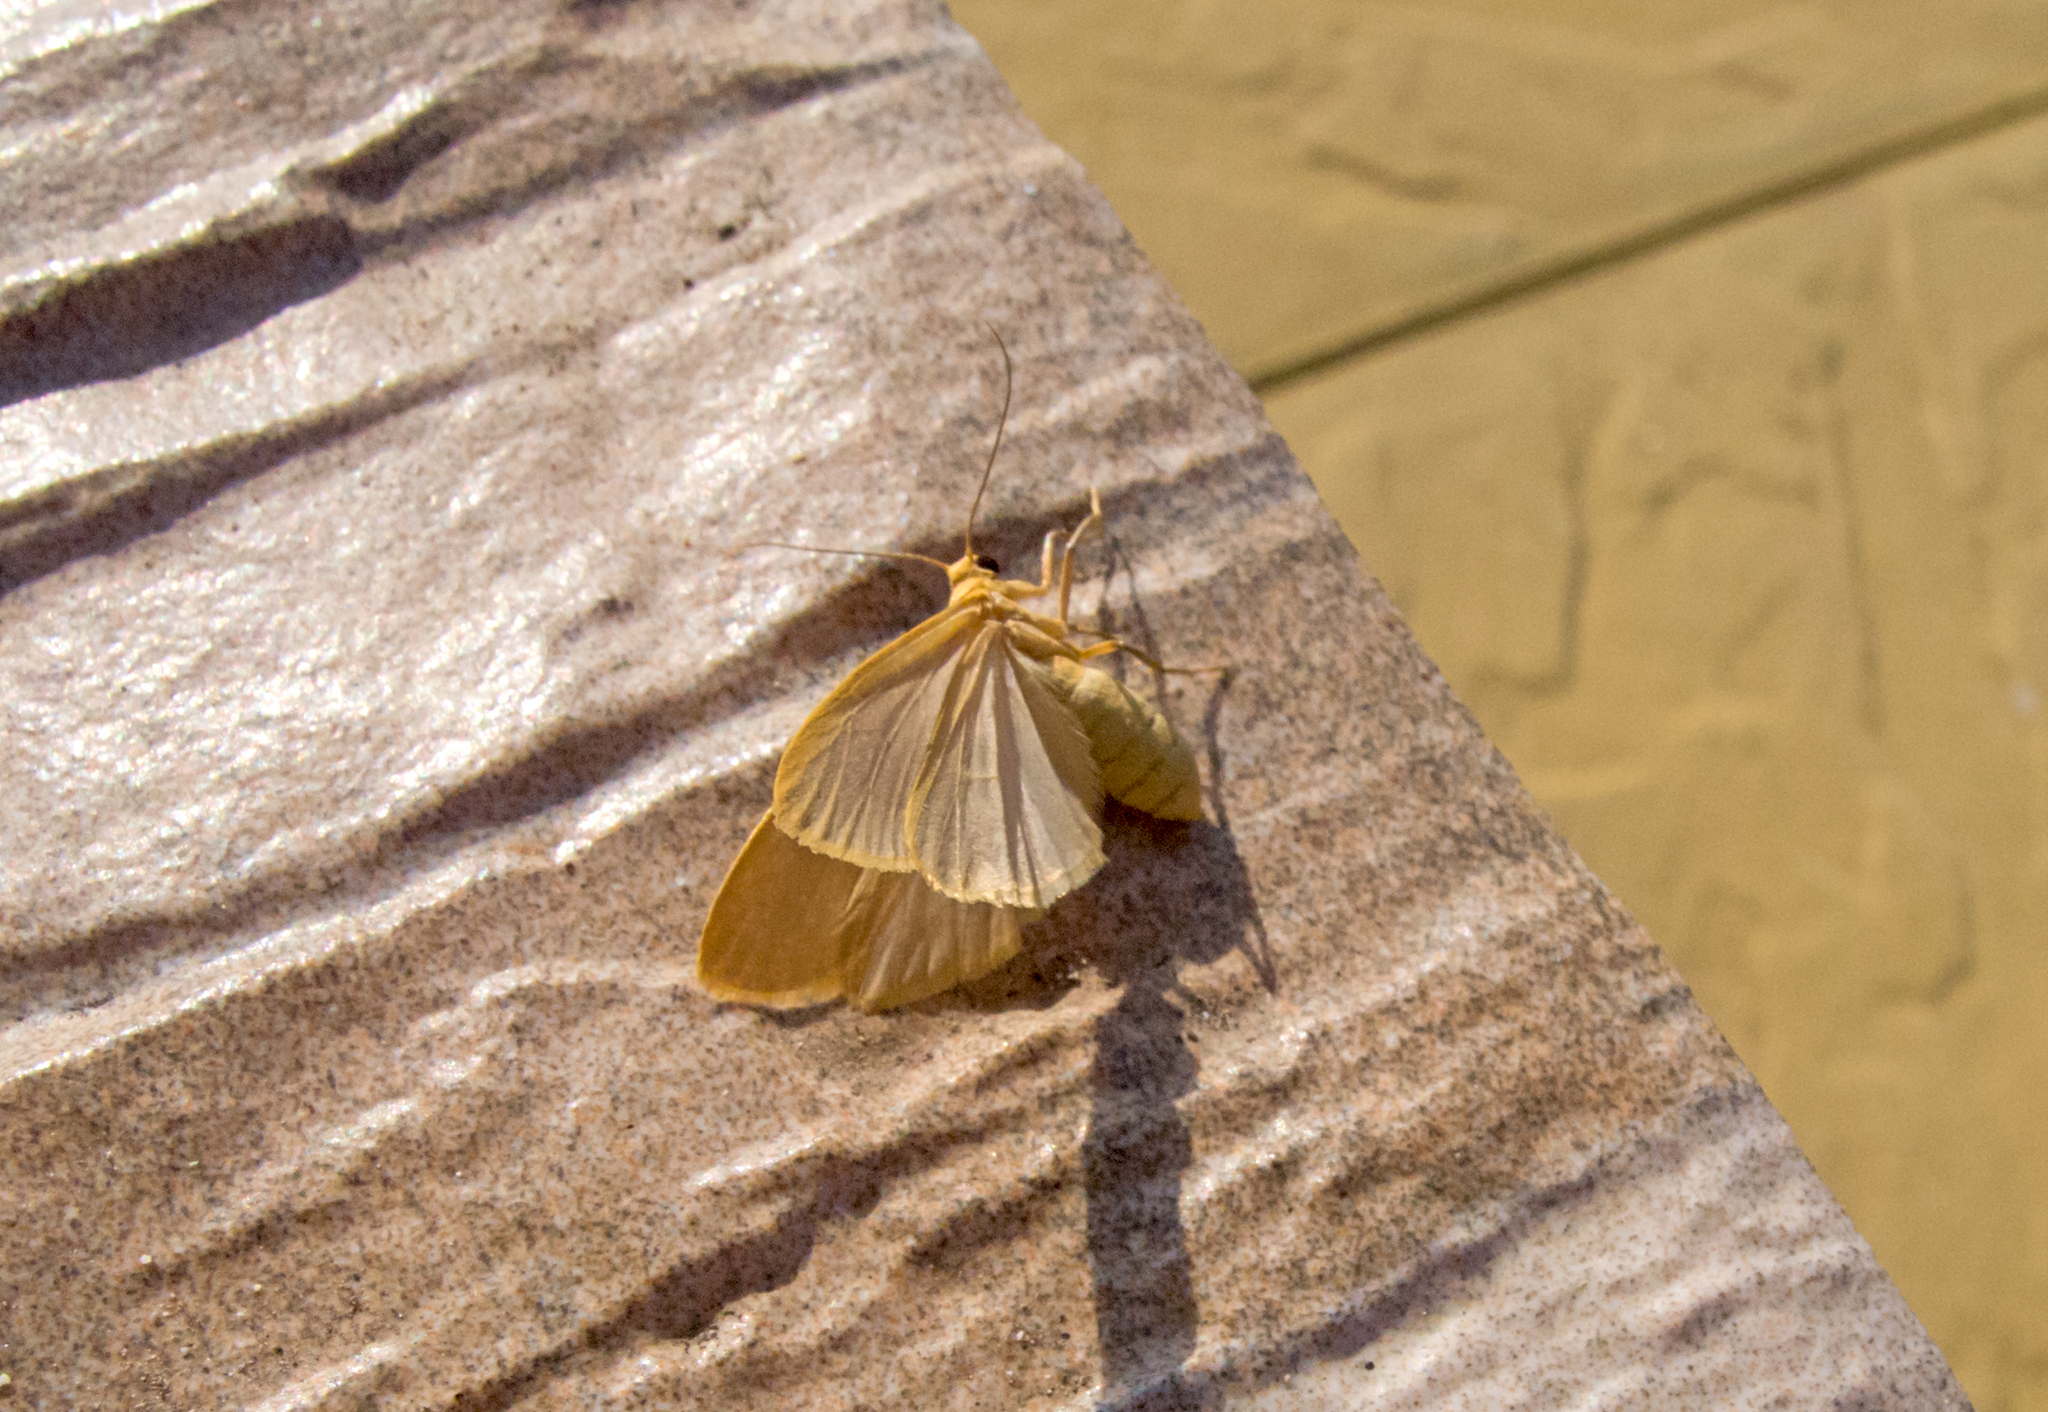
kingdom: Animalia
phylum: Arthropoda
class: Insecta
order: Lepidoptera
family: Erebidae
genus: Nyea
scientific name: Nyea lurideola
